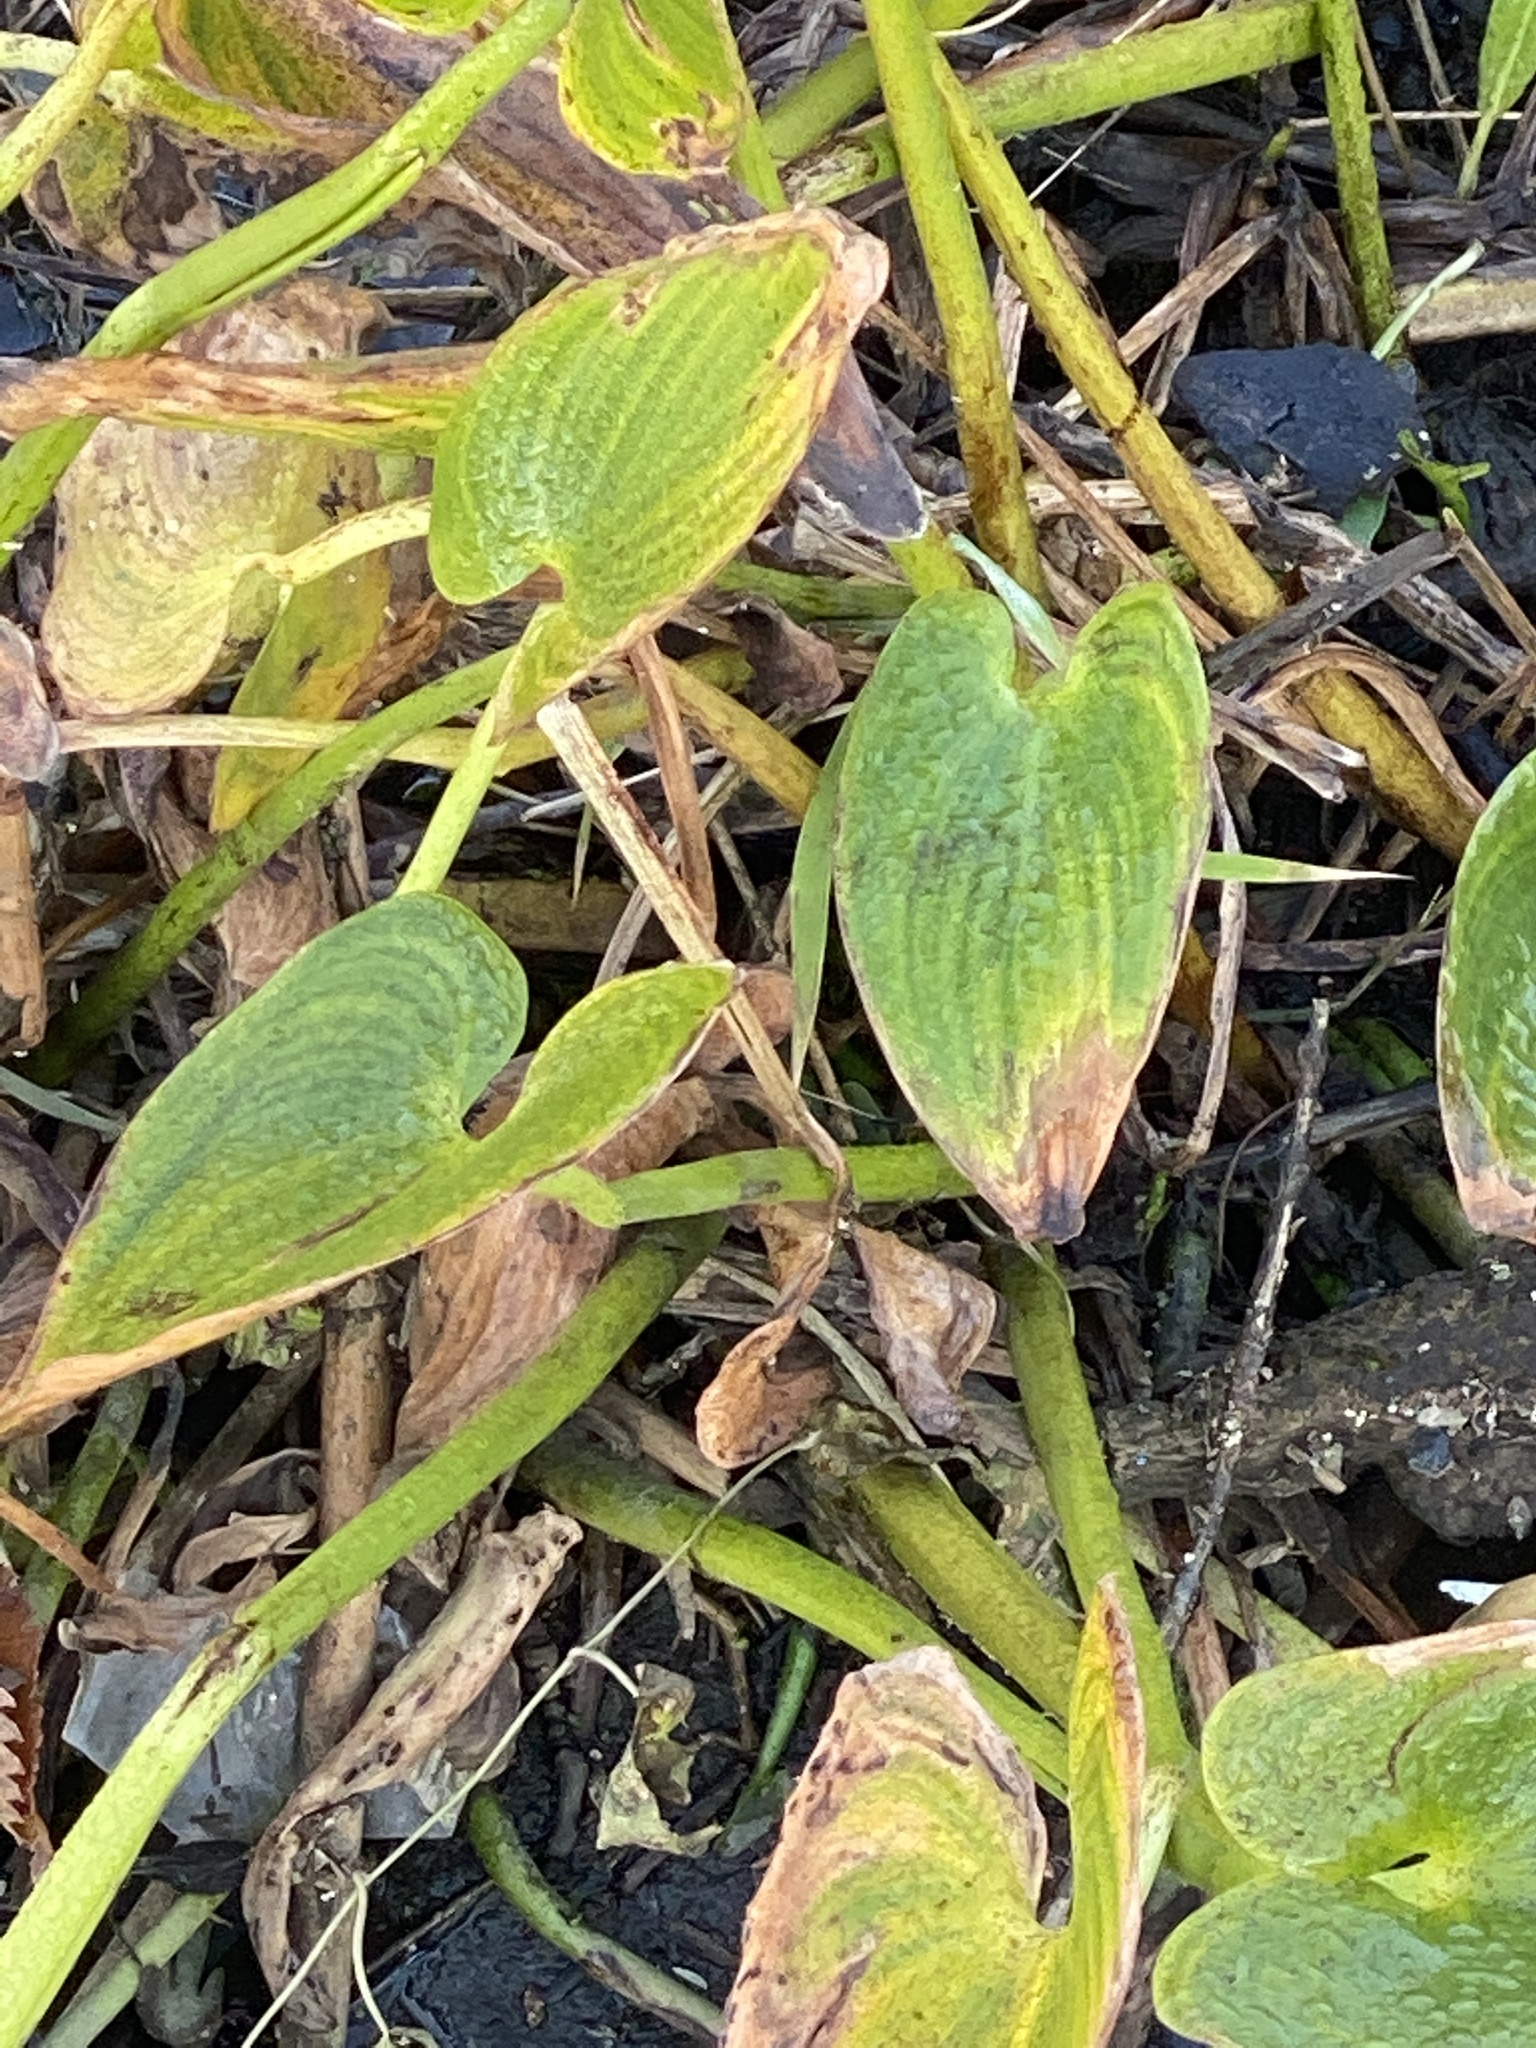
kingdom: Plantae
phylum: Tracheophyta
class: Liliopsida
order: Commelinales
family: Pontederiaceae
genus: Pontederia
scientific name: Pontederia cordata
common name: Pickerelweed
